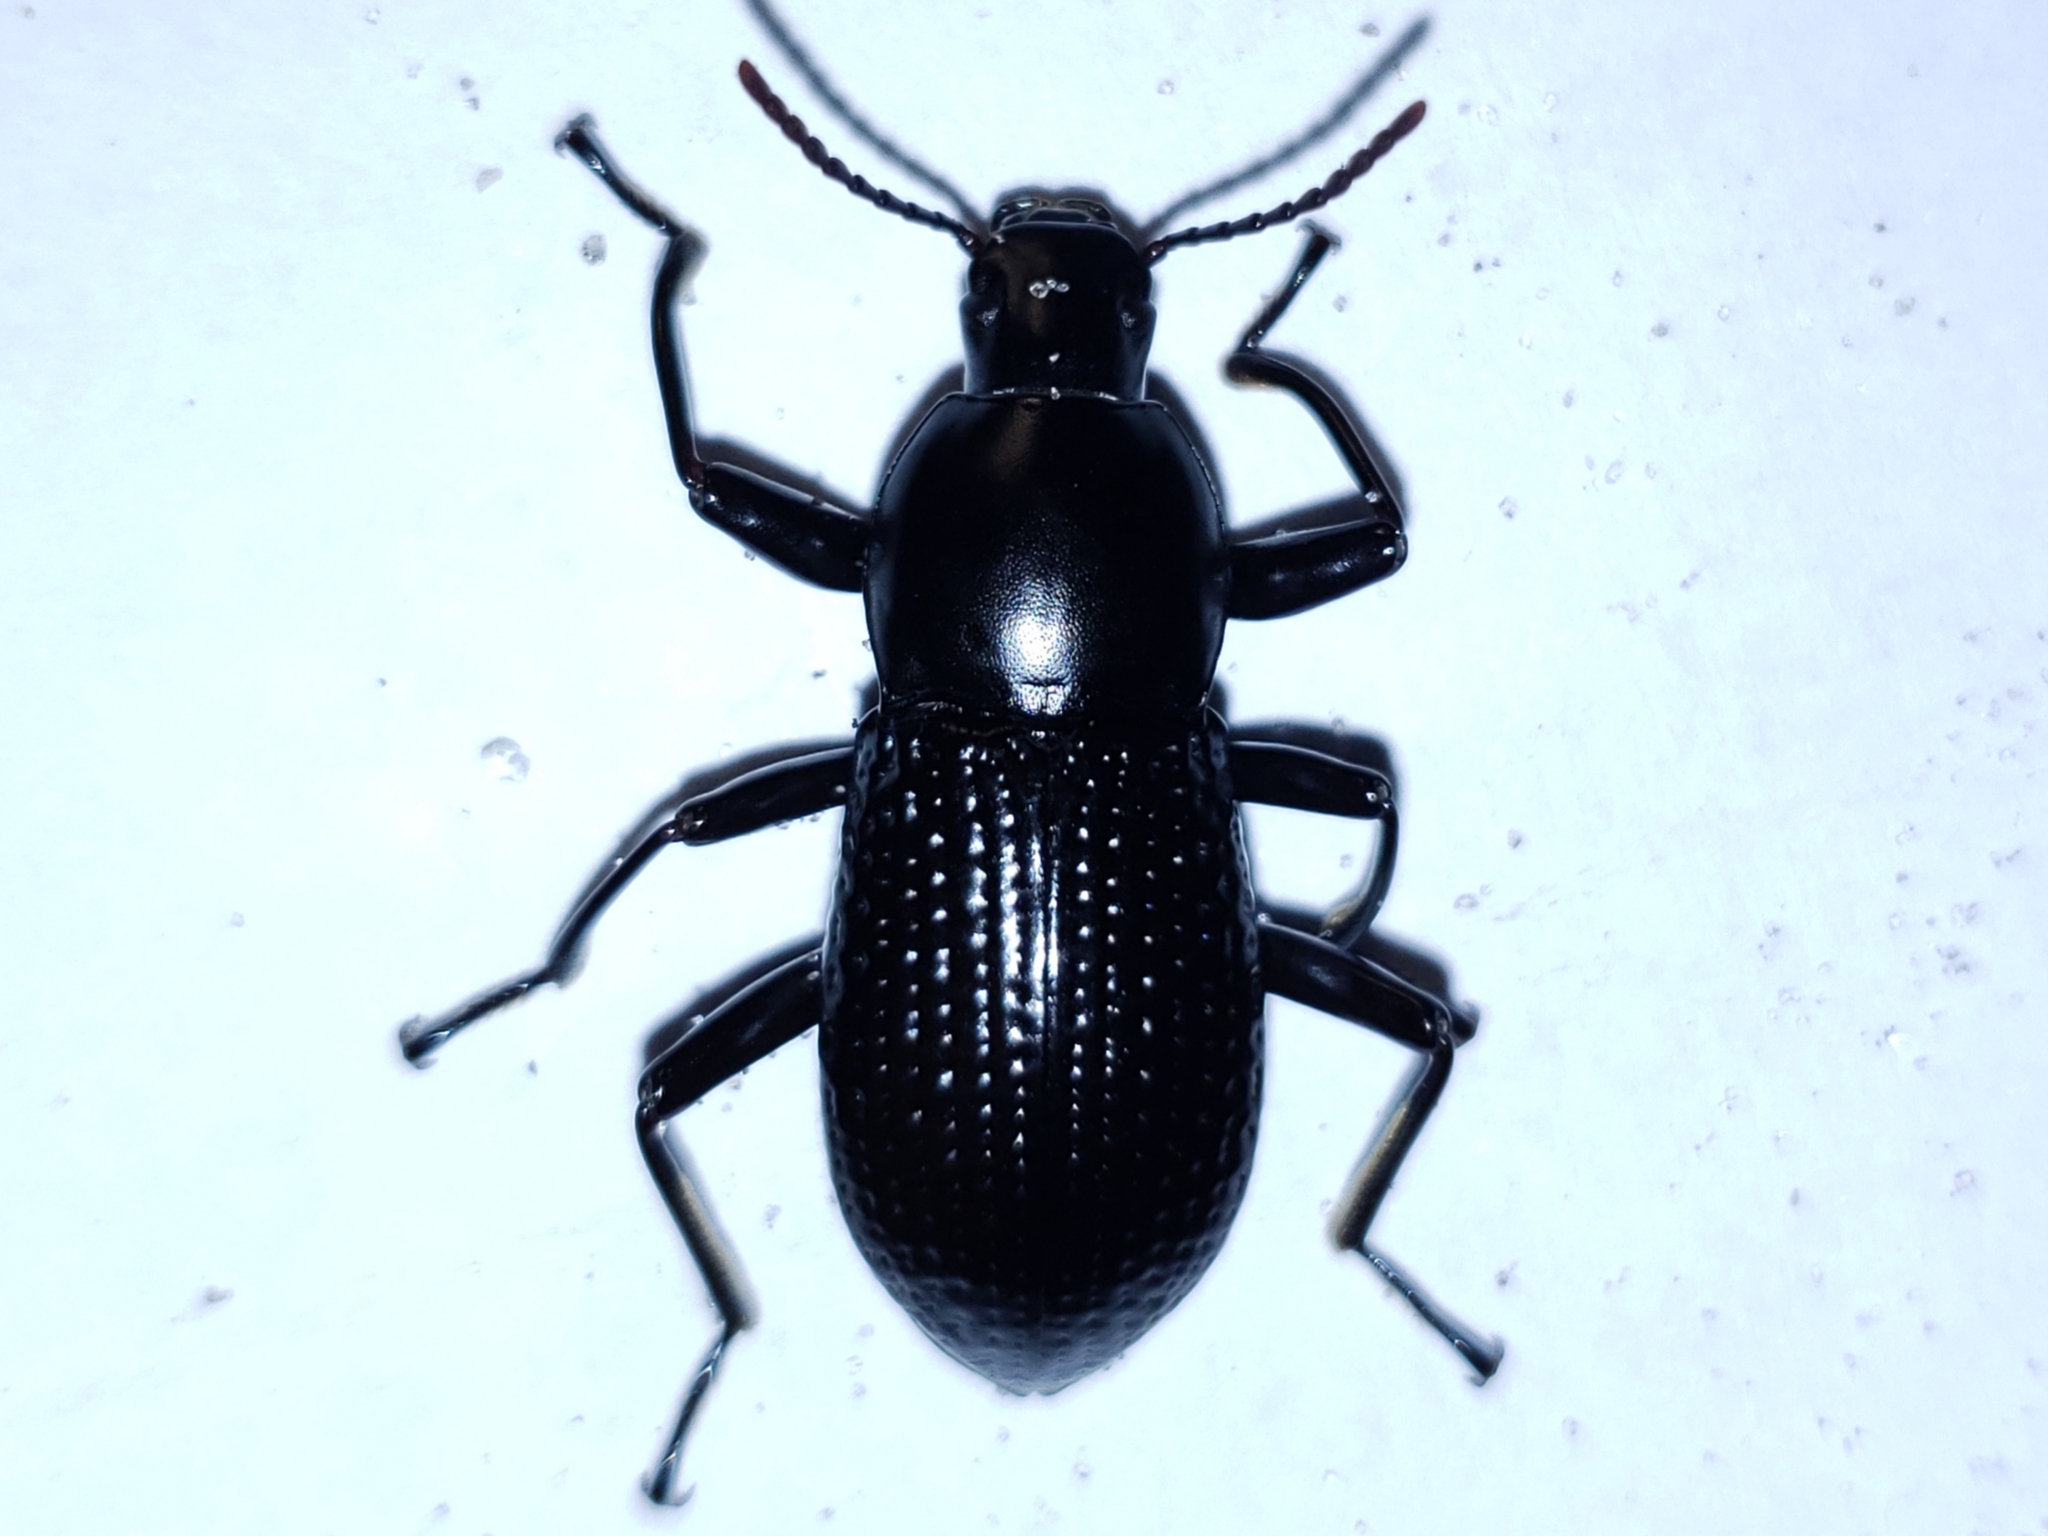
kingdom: Animalia
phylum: Arthropoda
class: Insecta
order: Coleoptera
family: Tenebrionidae
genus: Polopinus
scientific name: Polopinus
